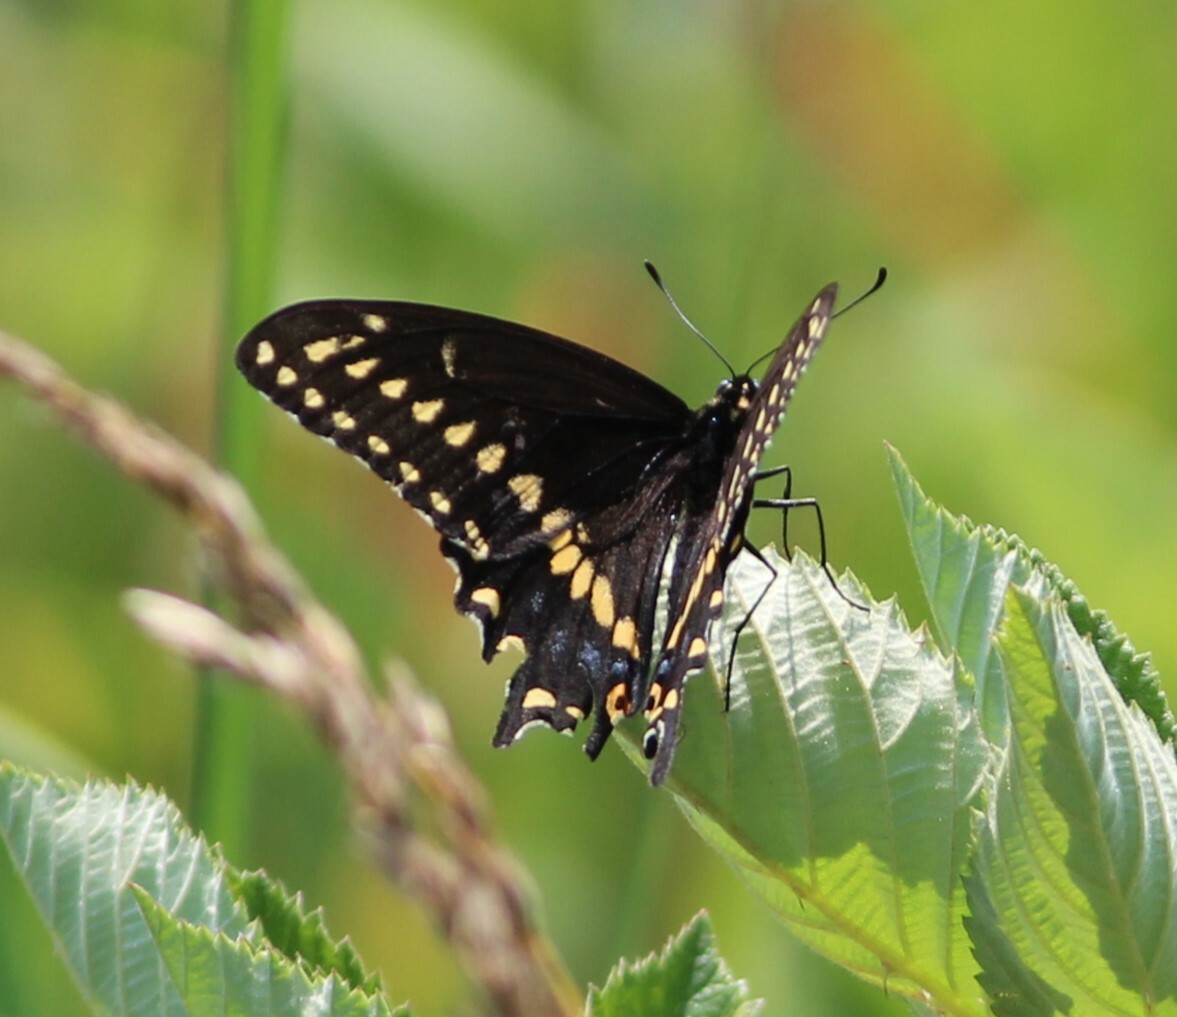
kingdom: Animalia
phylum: Arthropoda
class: Insecta
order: Lepidoptera
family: Papilionidae
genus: Papilio
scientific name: Papilio polyxenes
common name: Black swallowtail
